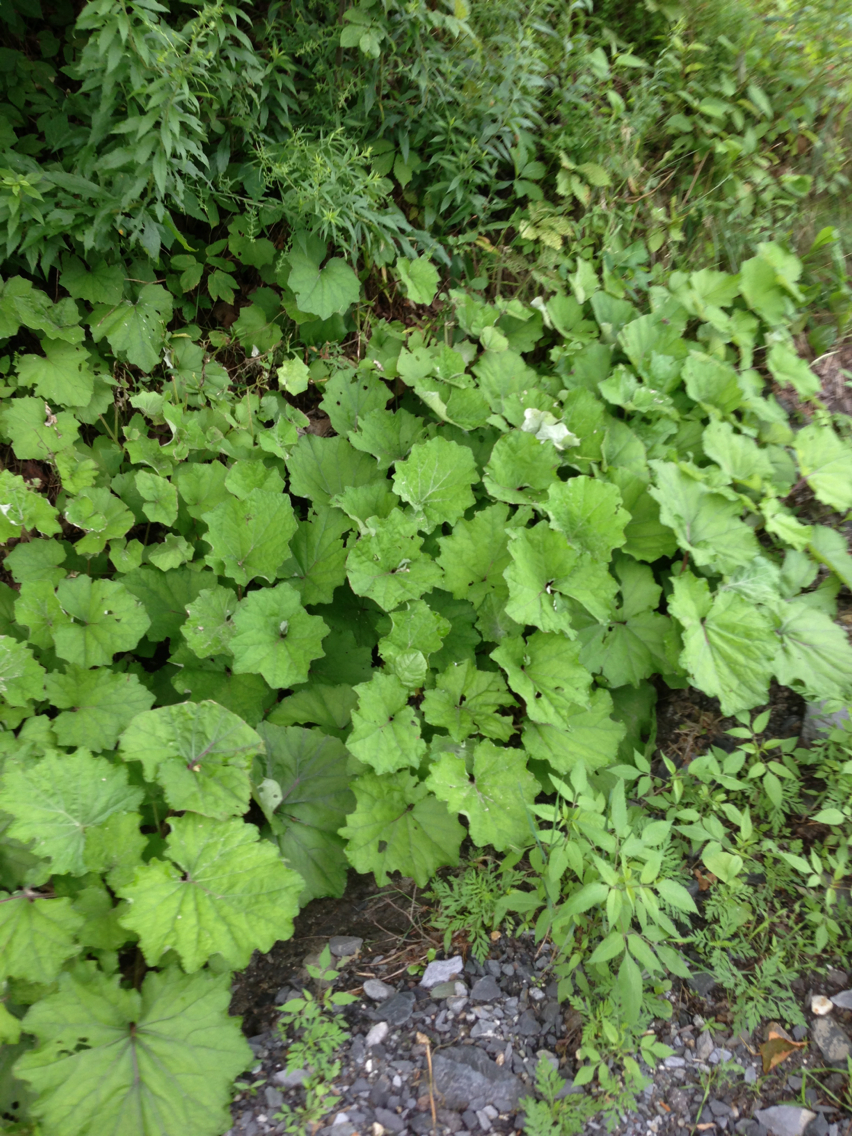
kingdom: Plantae
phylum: Tracheophyta
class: Magnoliopsida
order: Asterales
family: Asteraceae
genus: Tussilago
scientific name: Tussilago farfara
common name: Coltsfoot
